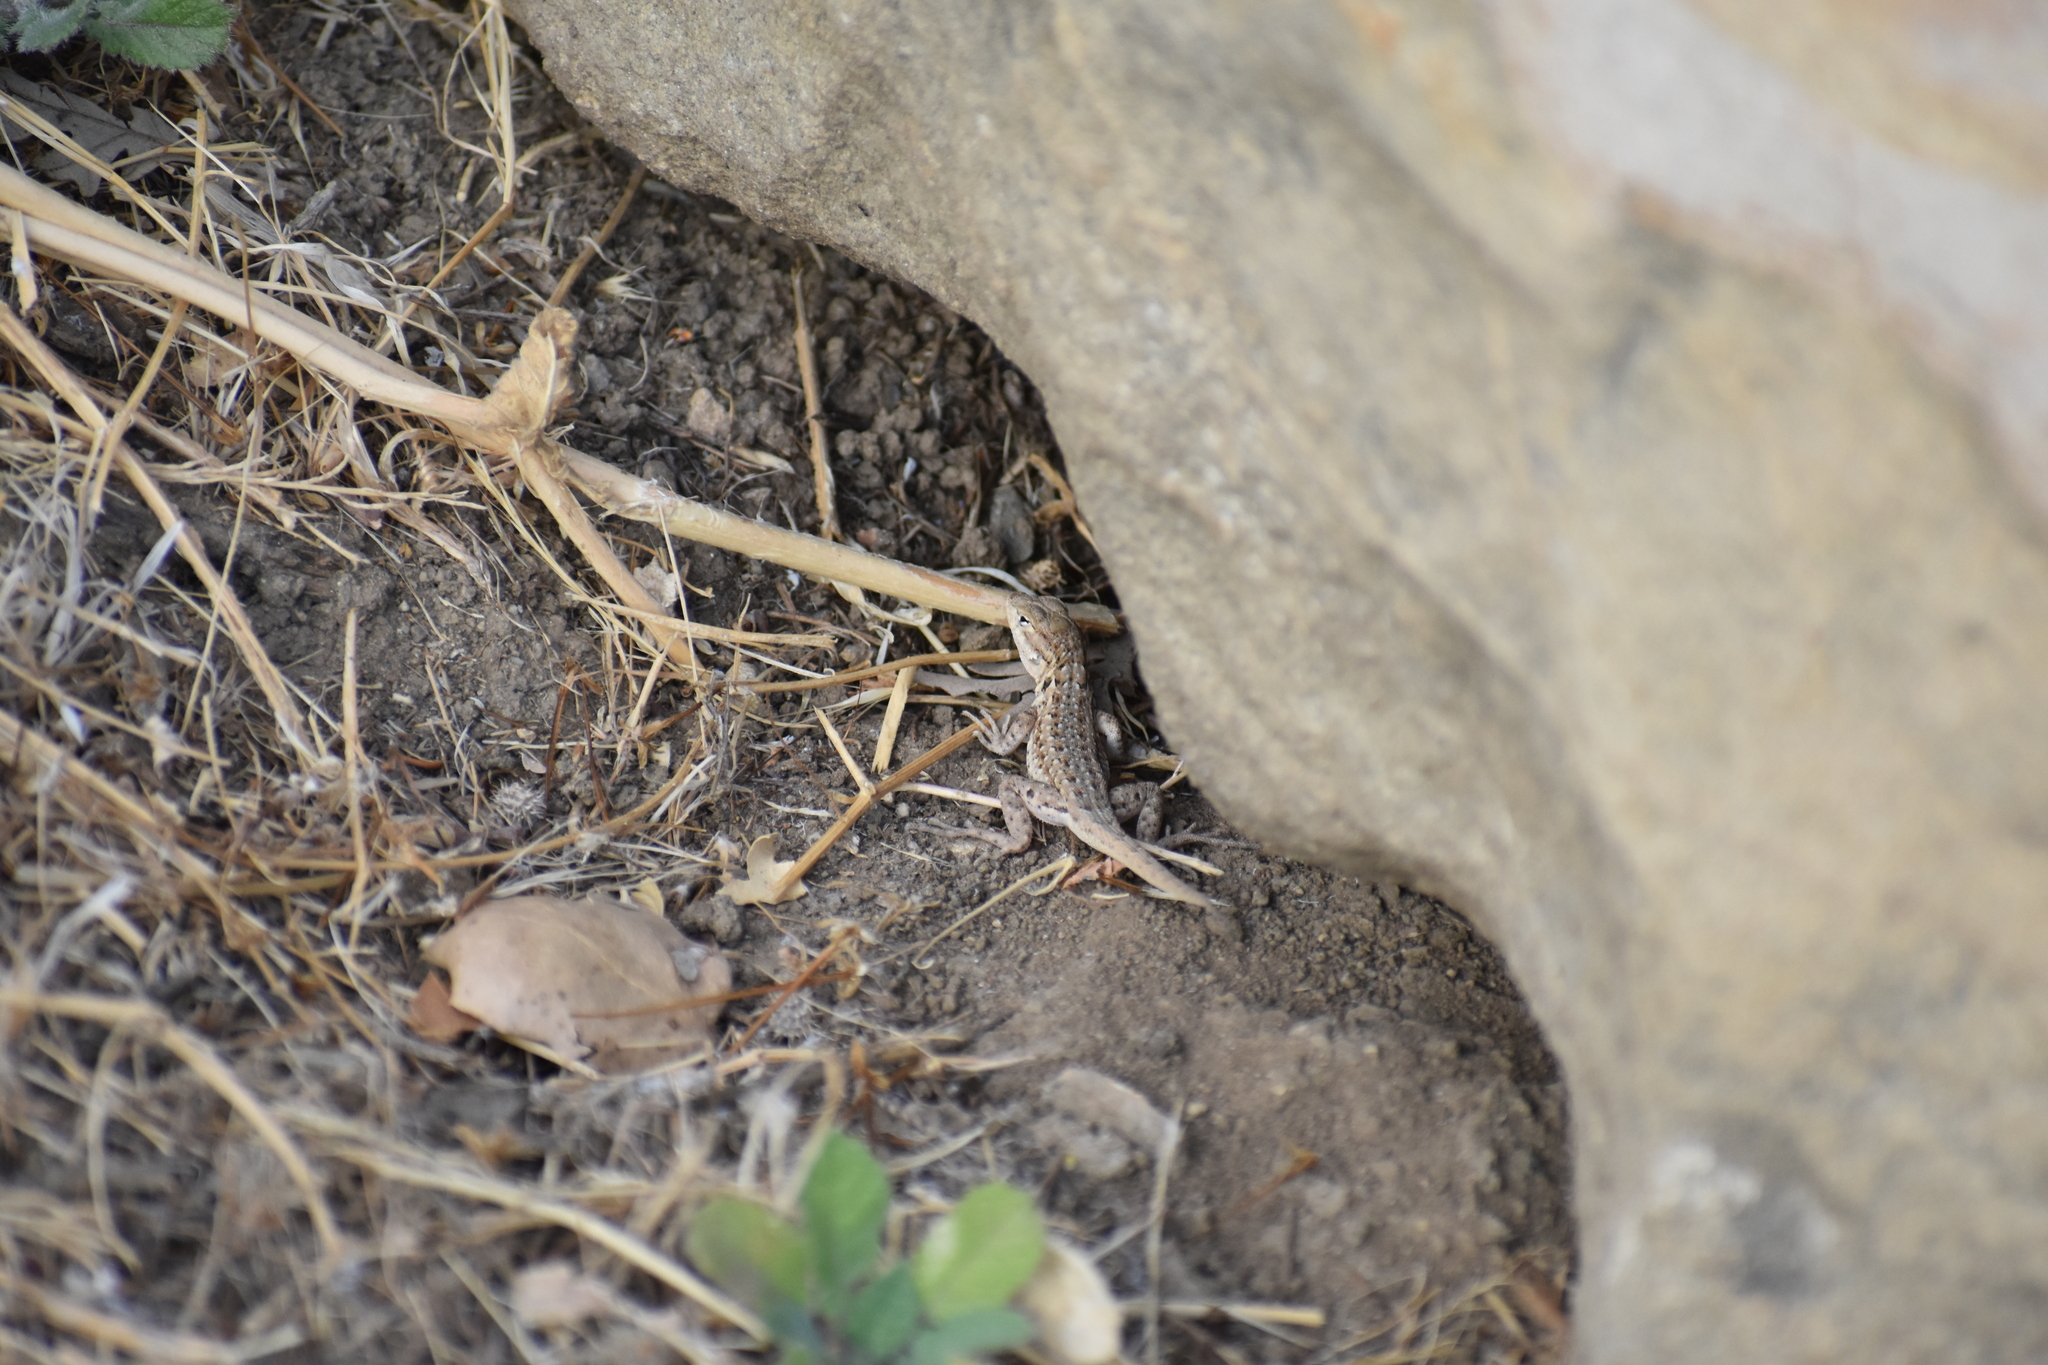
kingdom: Animalia
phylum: Chordata
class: Squamata
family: Phrynosomatidae
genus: Uta
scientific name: Uta stansburiana
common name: Side-blotched lizard
